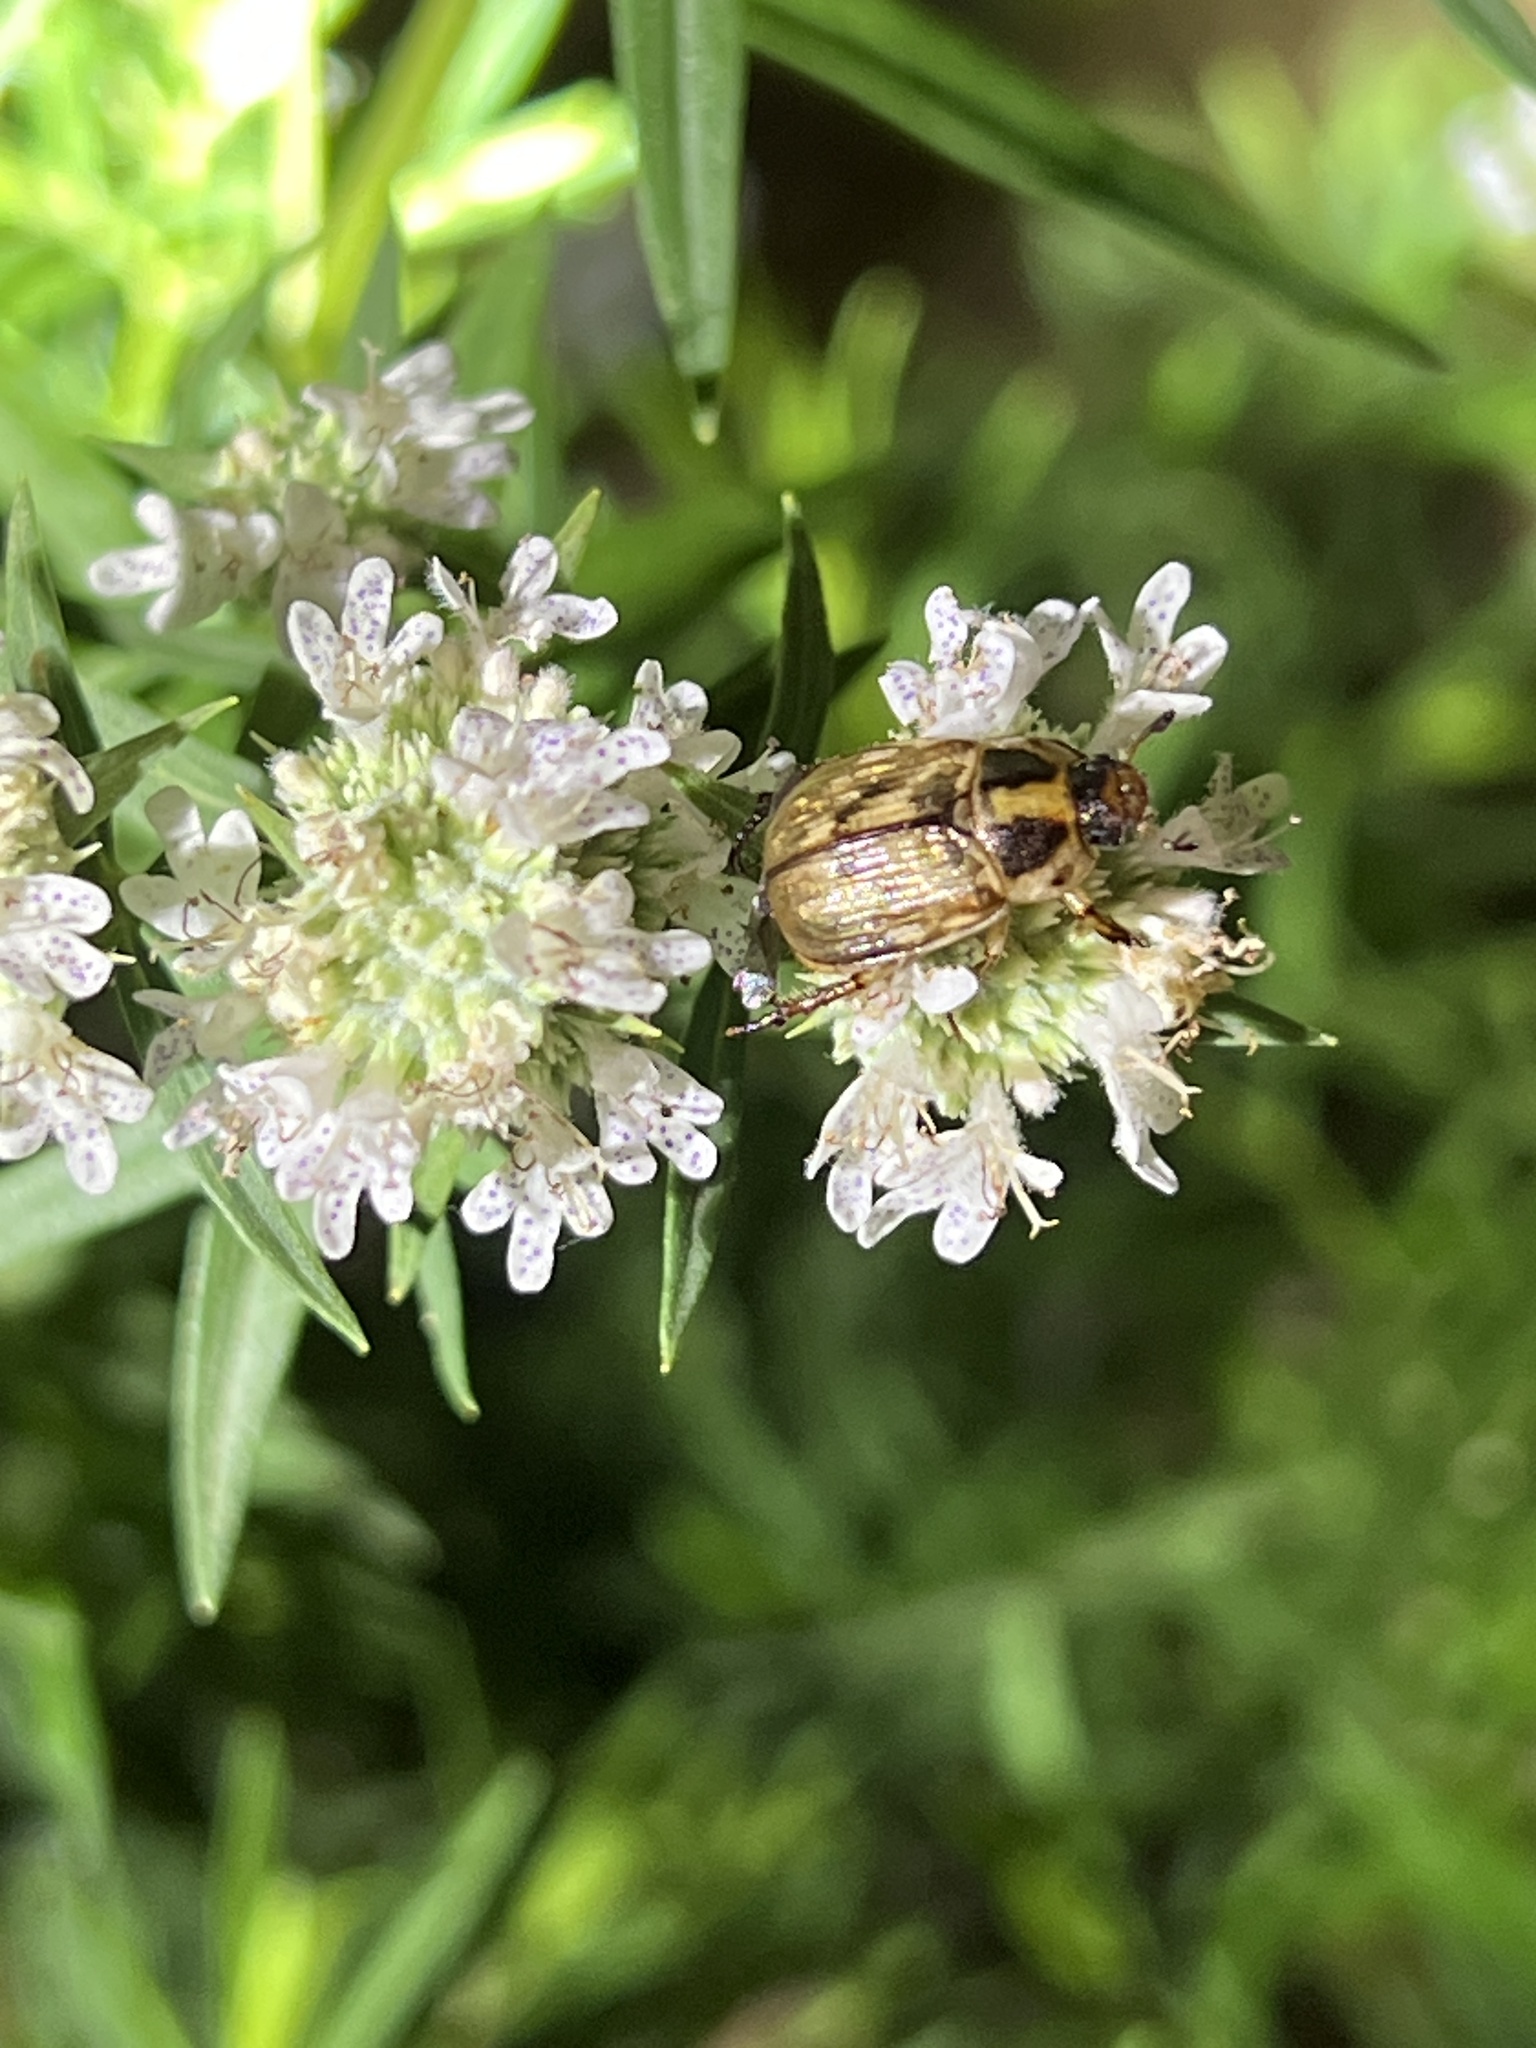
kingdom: Animalia
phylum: Arthropoda
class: Insecta
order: Coleoptera
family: Scarabaeidae
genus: Exomala
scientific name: Exomala orientalis
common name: Oriental beetle
